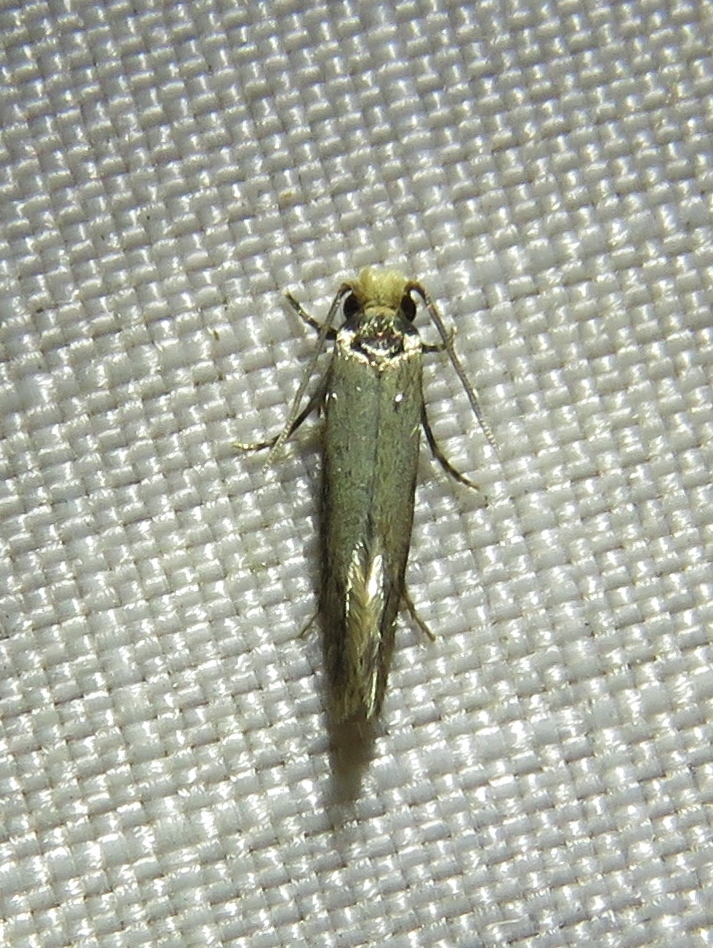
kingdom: Animalia
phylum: Arthropoda
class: Insecta
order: Lepidoptera
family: Meessiidae
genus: Homostinea
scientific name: Homostinea curviliniella
